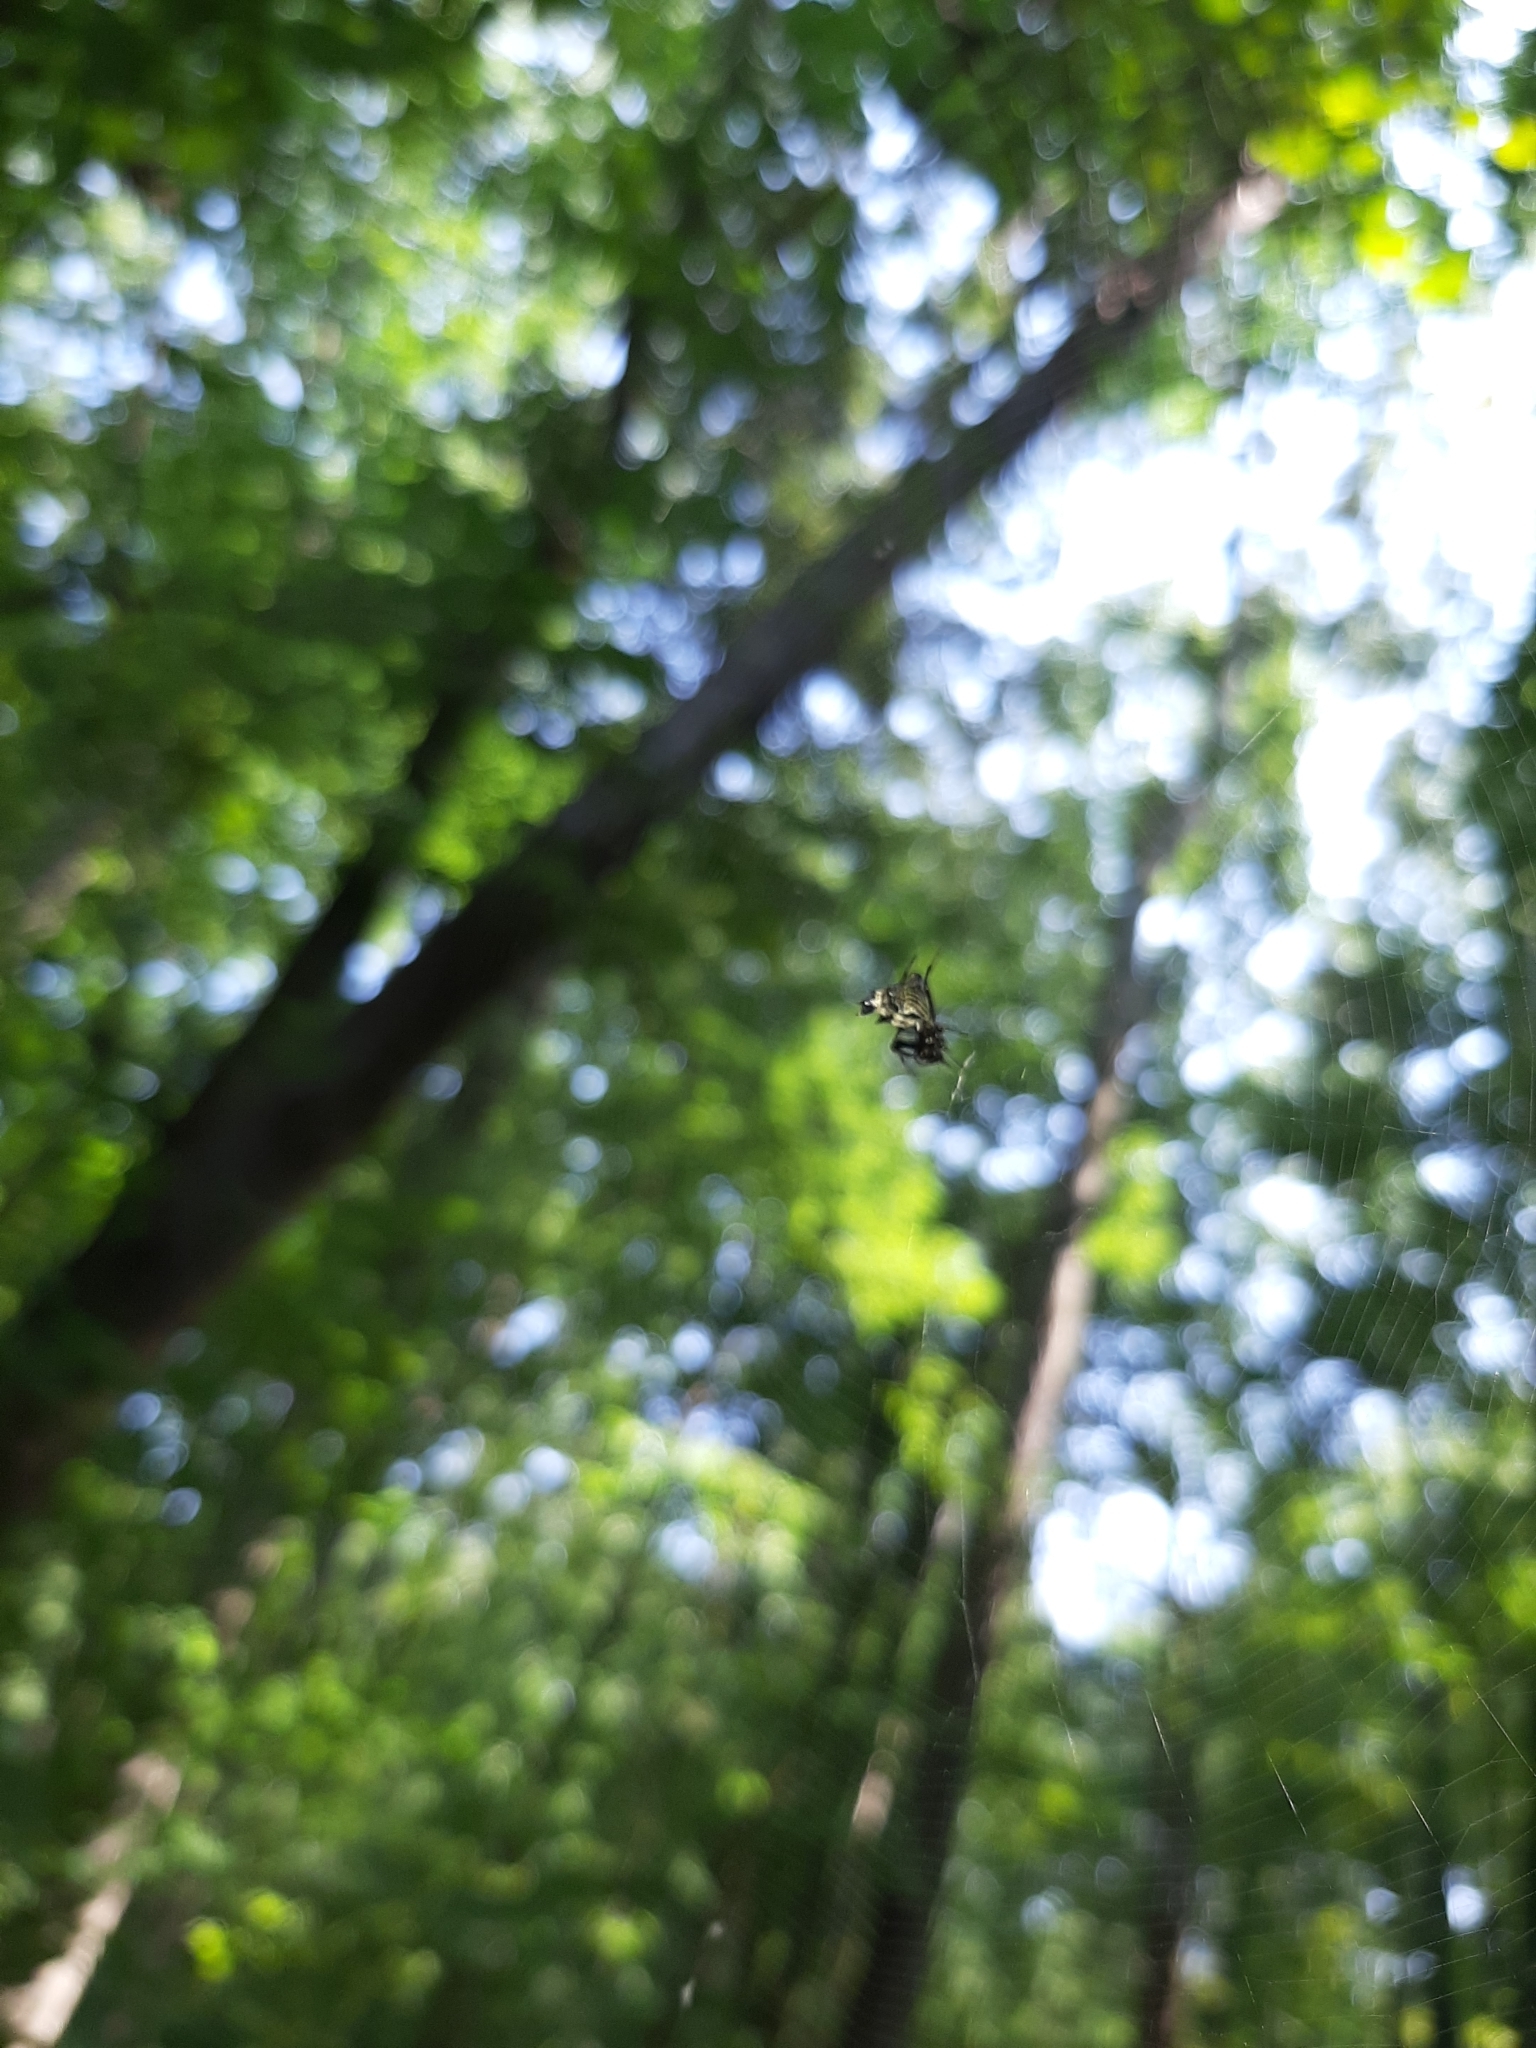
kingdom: Animalia
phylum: Arthropoda
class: Arachnida
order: Araneae
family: Araneidae
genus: Micrathena
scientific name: Micrathena gracilis
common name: Orb weavers
